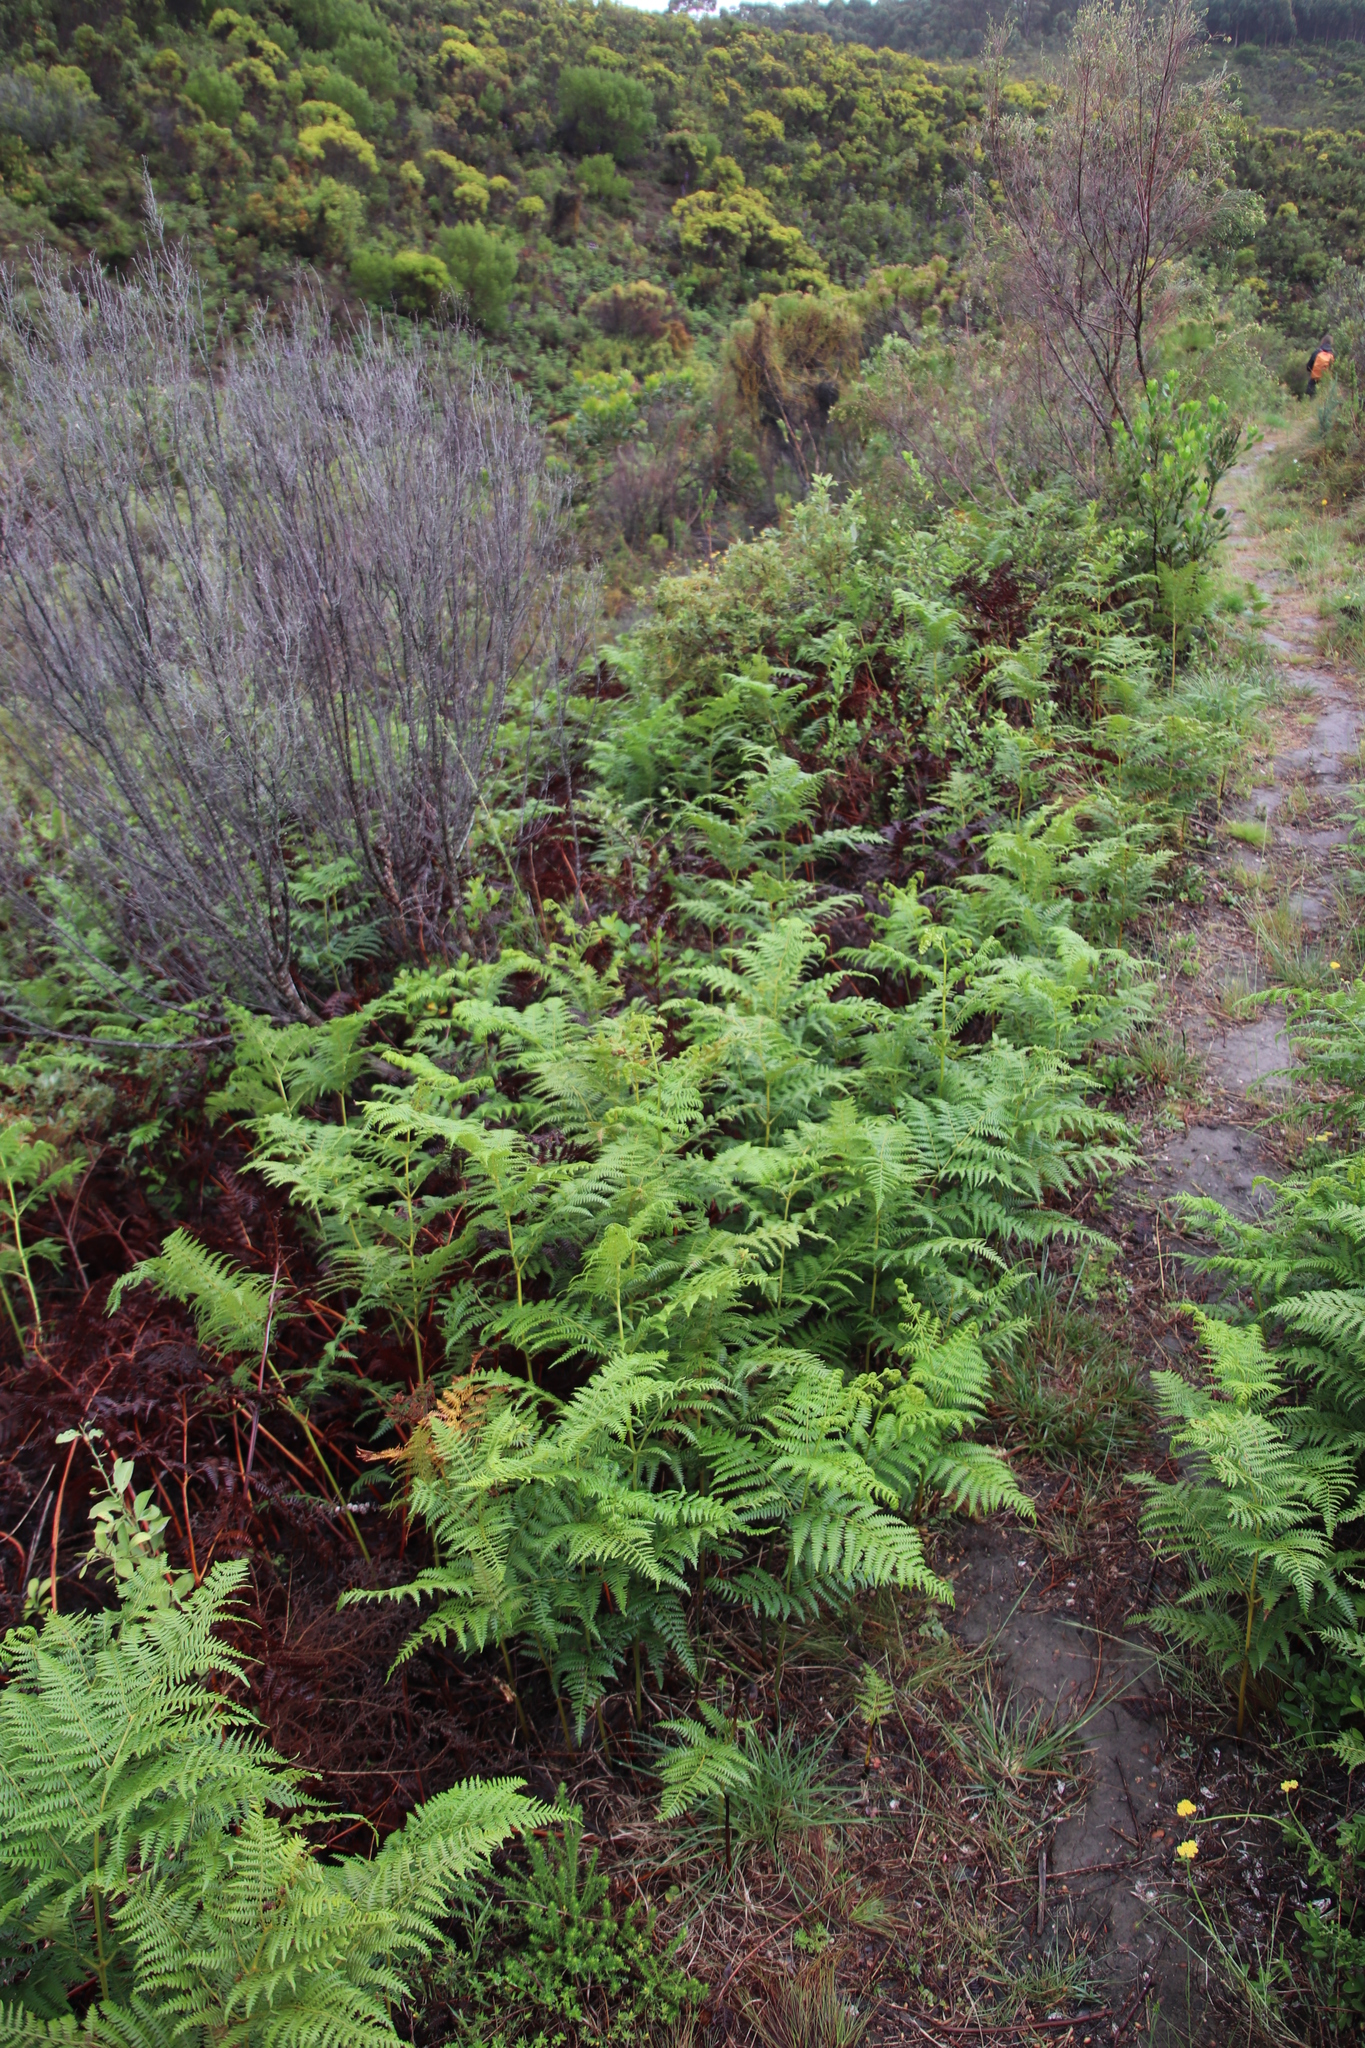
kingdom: Plantae
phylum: Tracheophyta
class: Polypodiopsida
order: Polypodiales
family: Dennstaedtiaceae
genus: Pteridium
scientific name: Pteridium aquilinum
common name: Bracken
